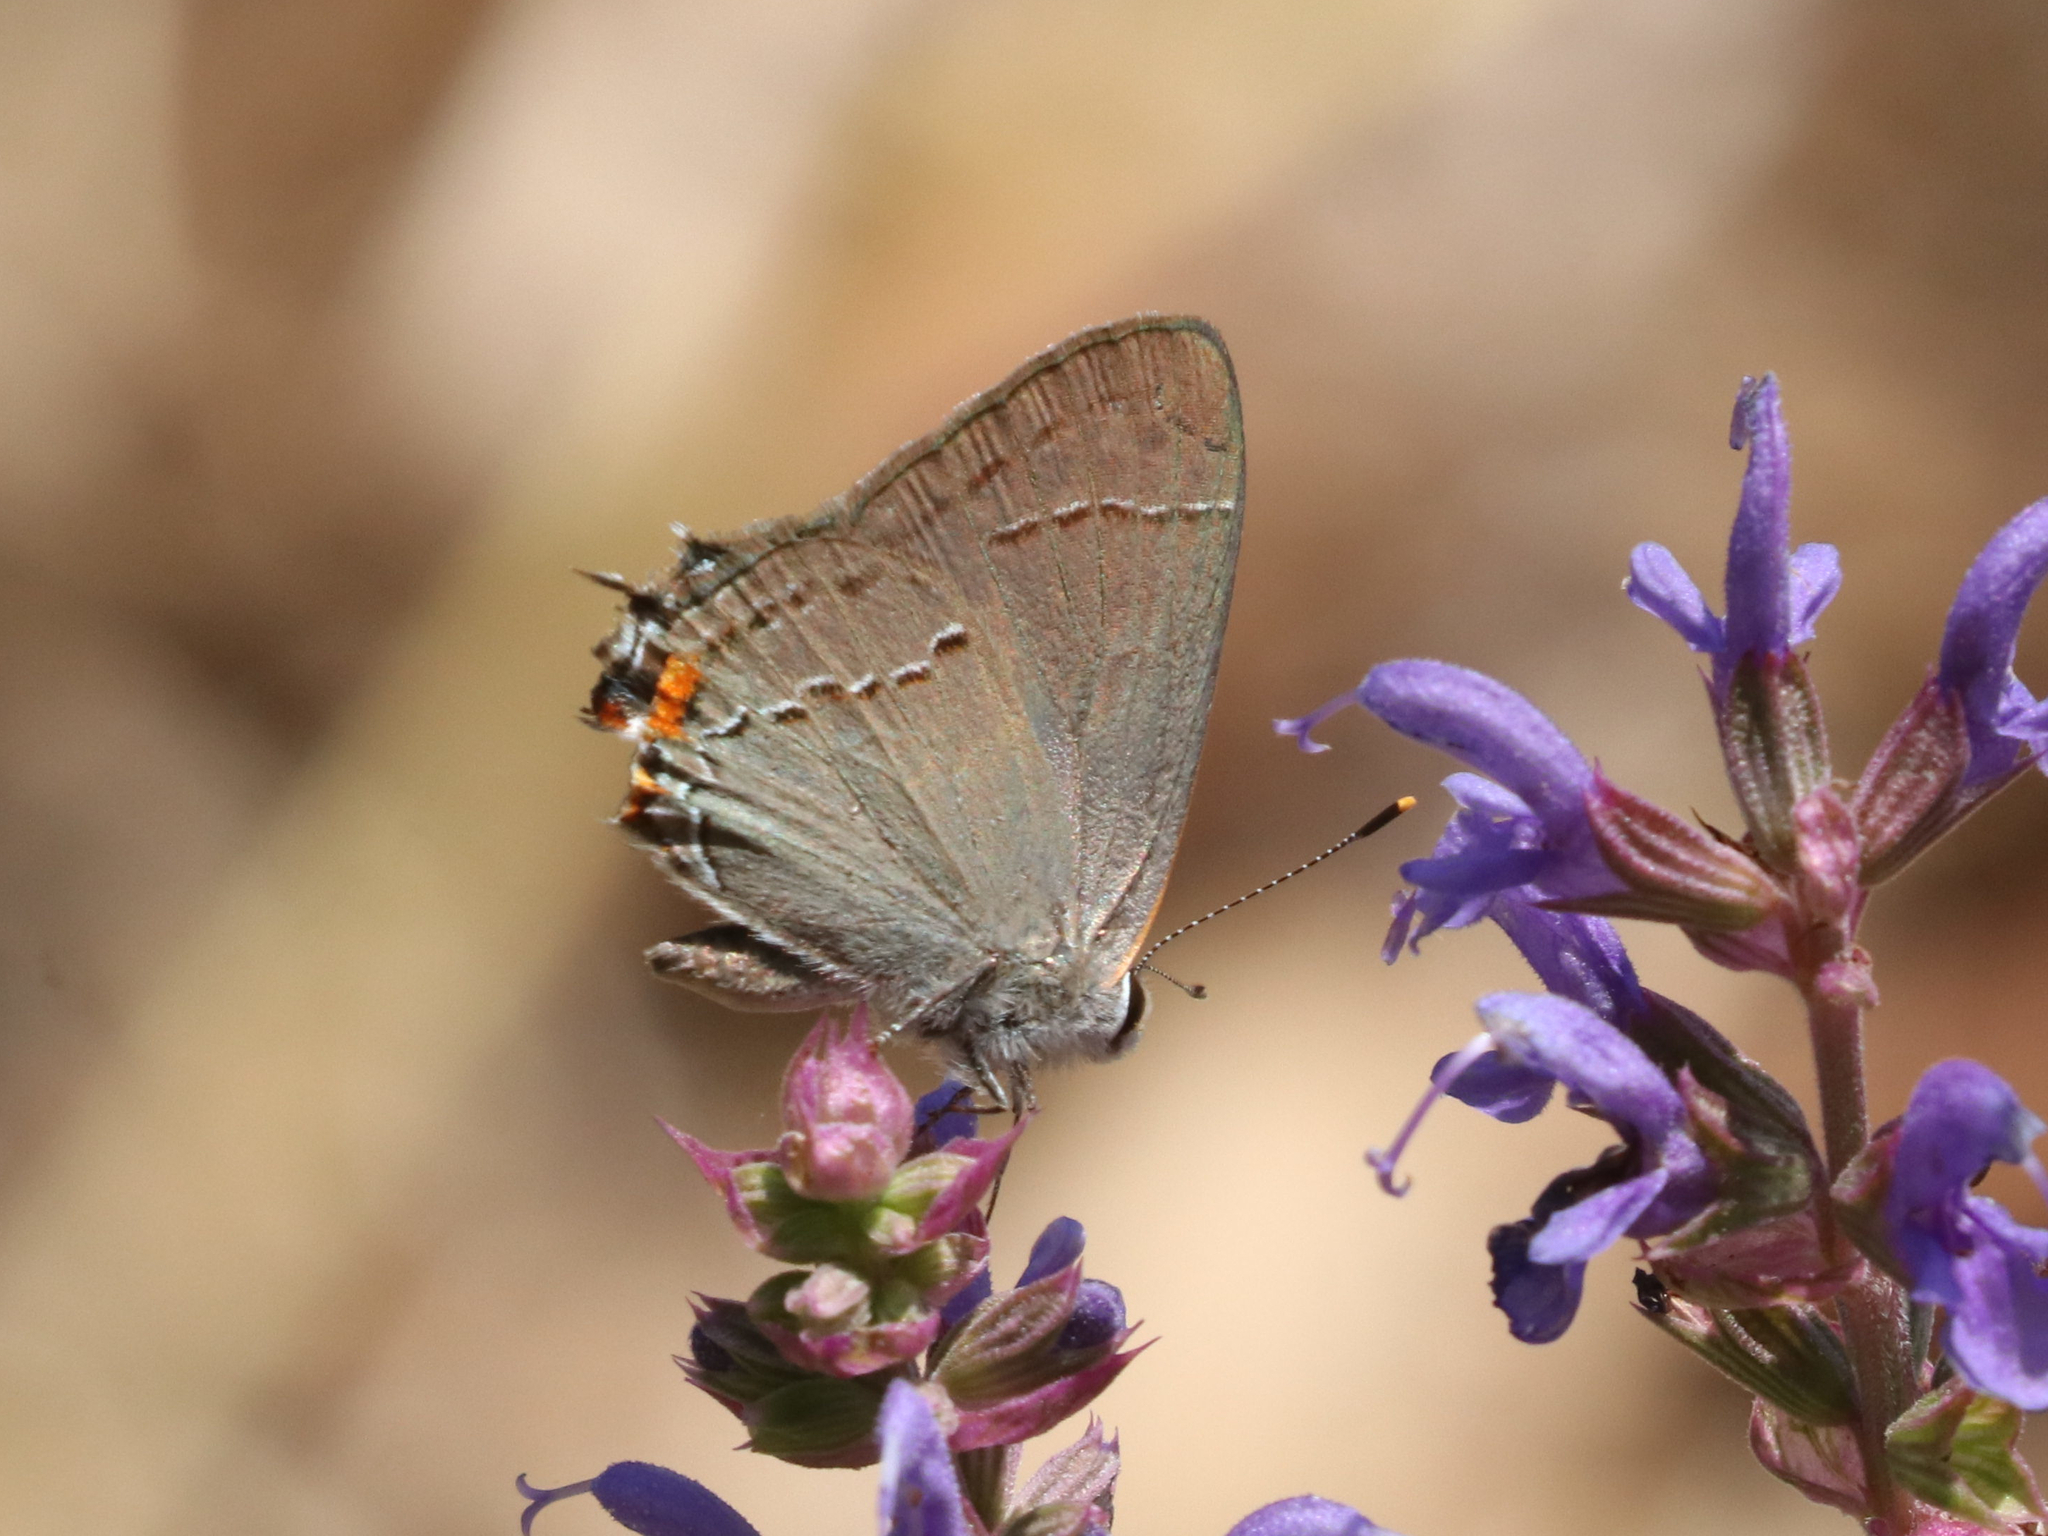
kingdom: Animalia
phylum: Arthropoda
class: Insecta
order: Lepidoptera
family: Lycaenidae
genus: Strymon
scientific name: Strymon melinus
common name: Gray hairstreak
